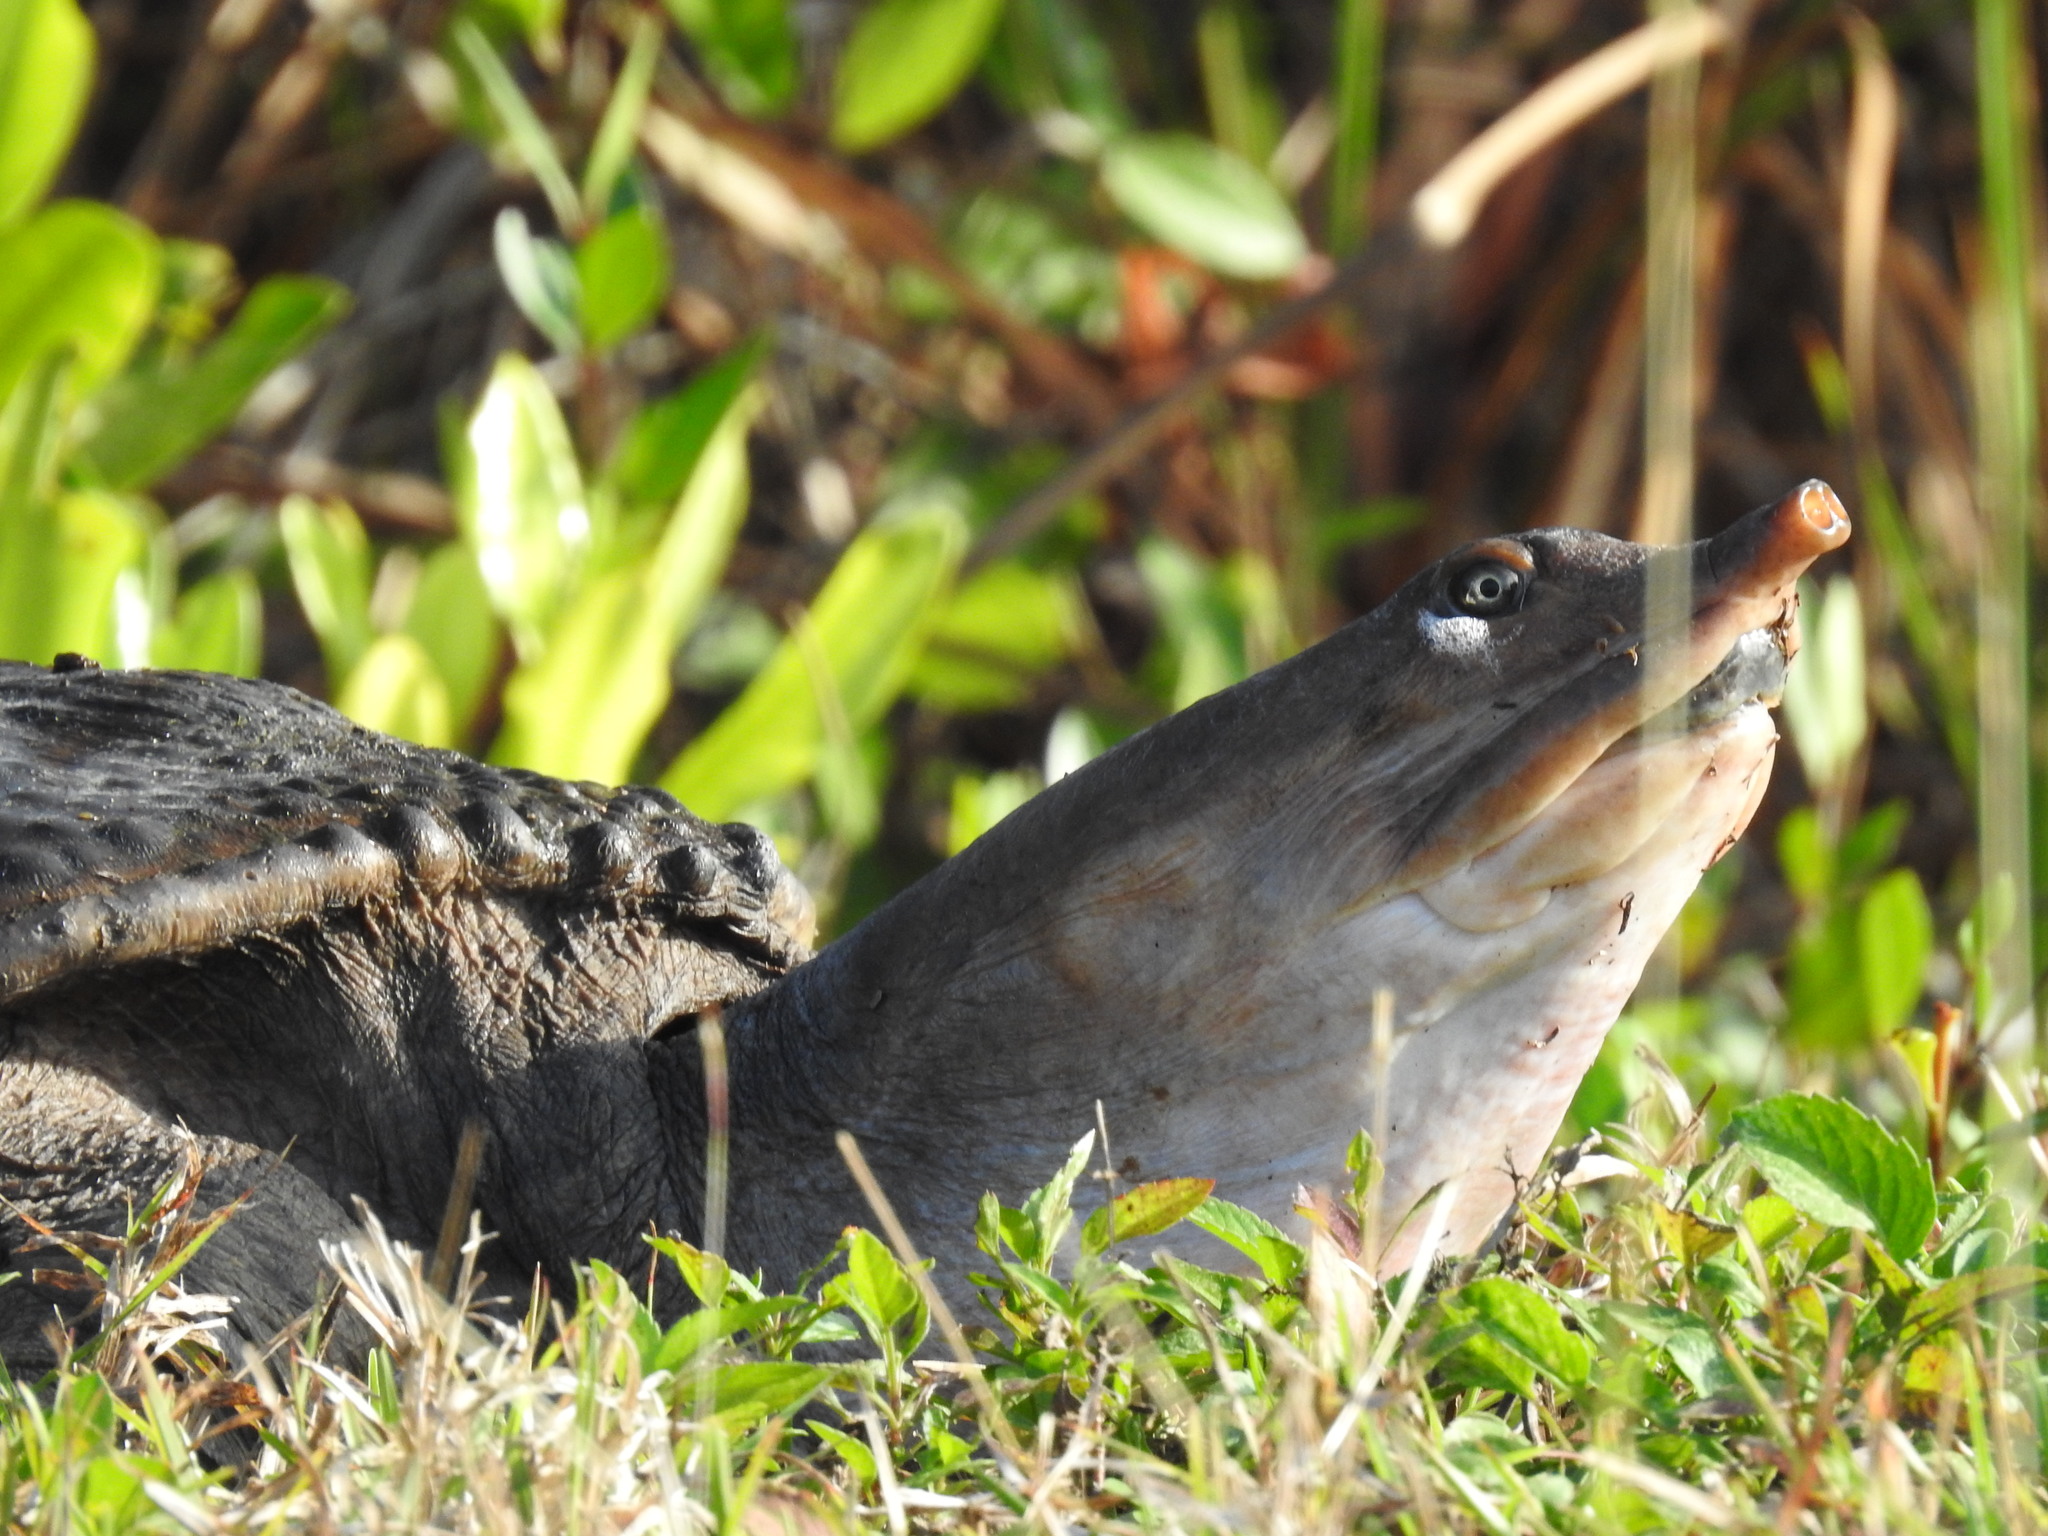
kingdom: Animalia
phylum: Chordata
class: Testudines
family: Trionychidae
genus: Apalone
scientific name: Apalone ferox
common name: Florida softshell turtle
